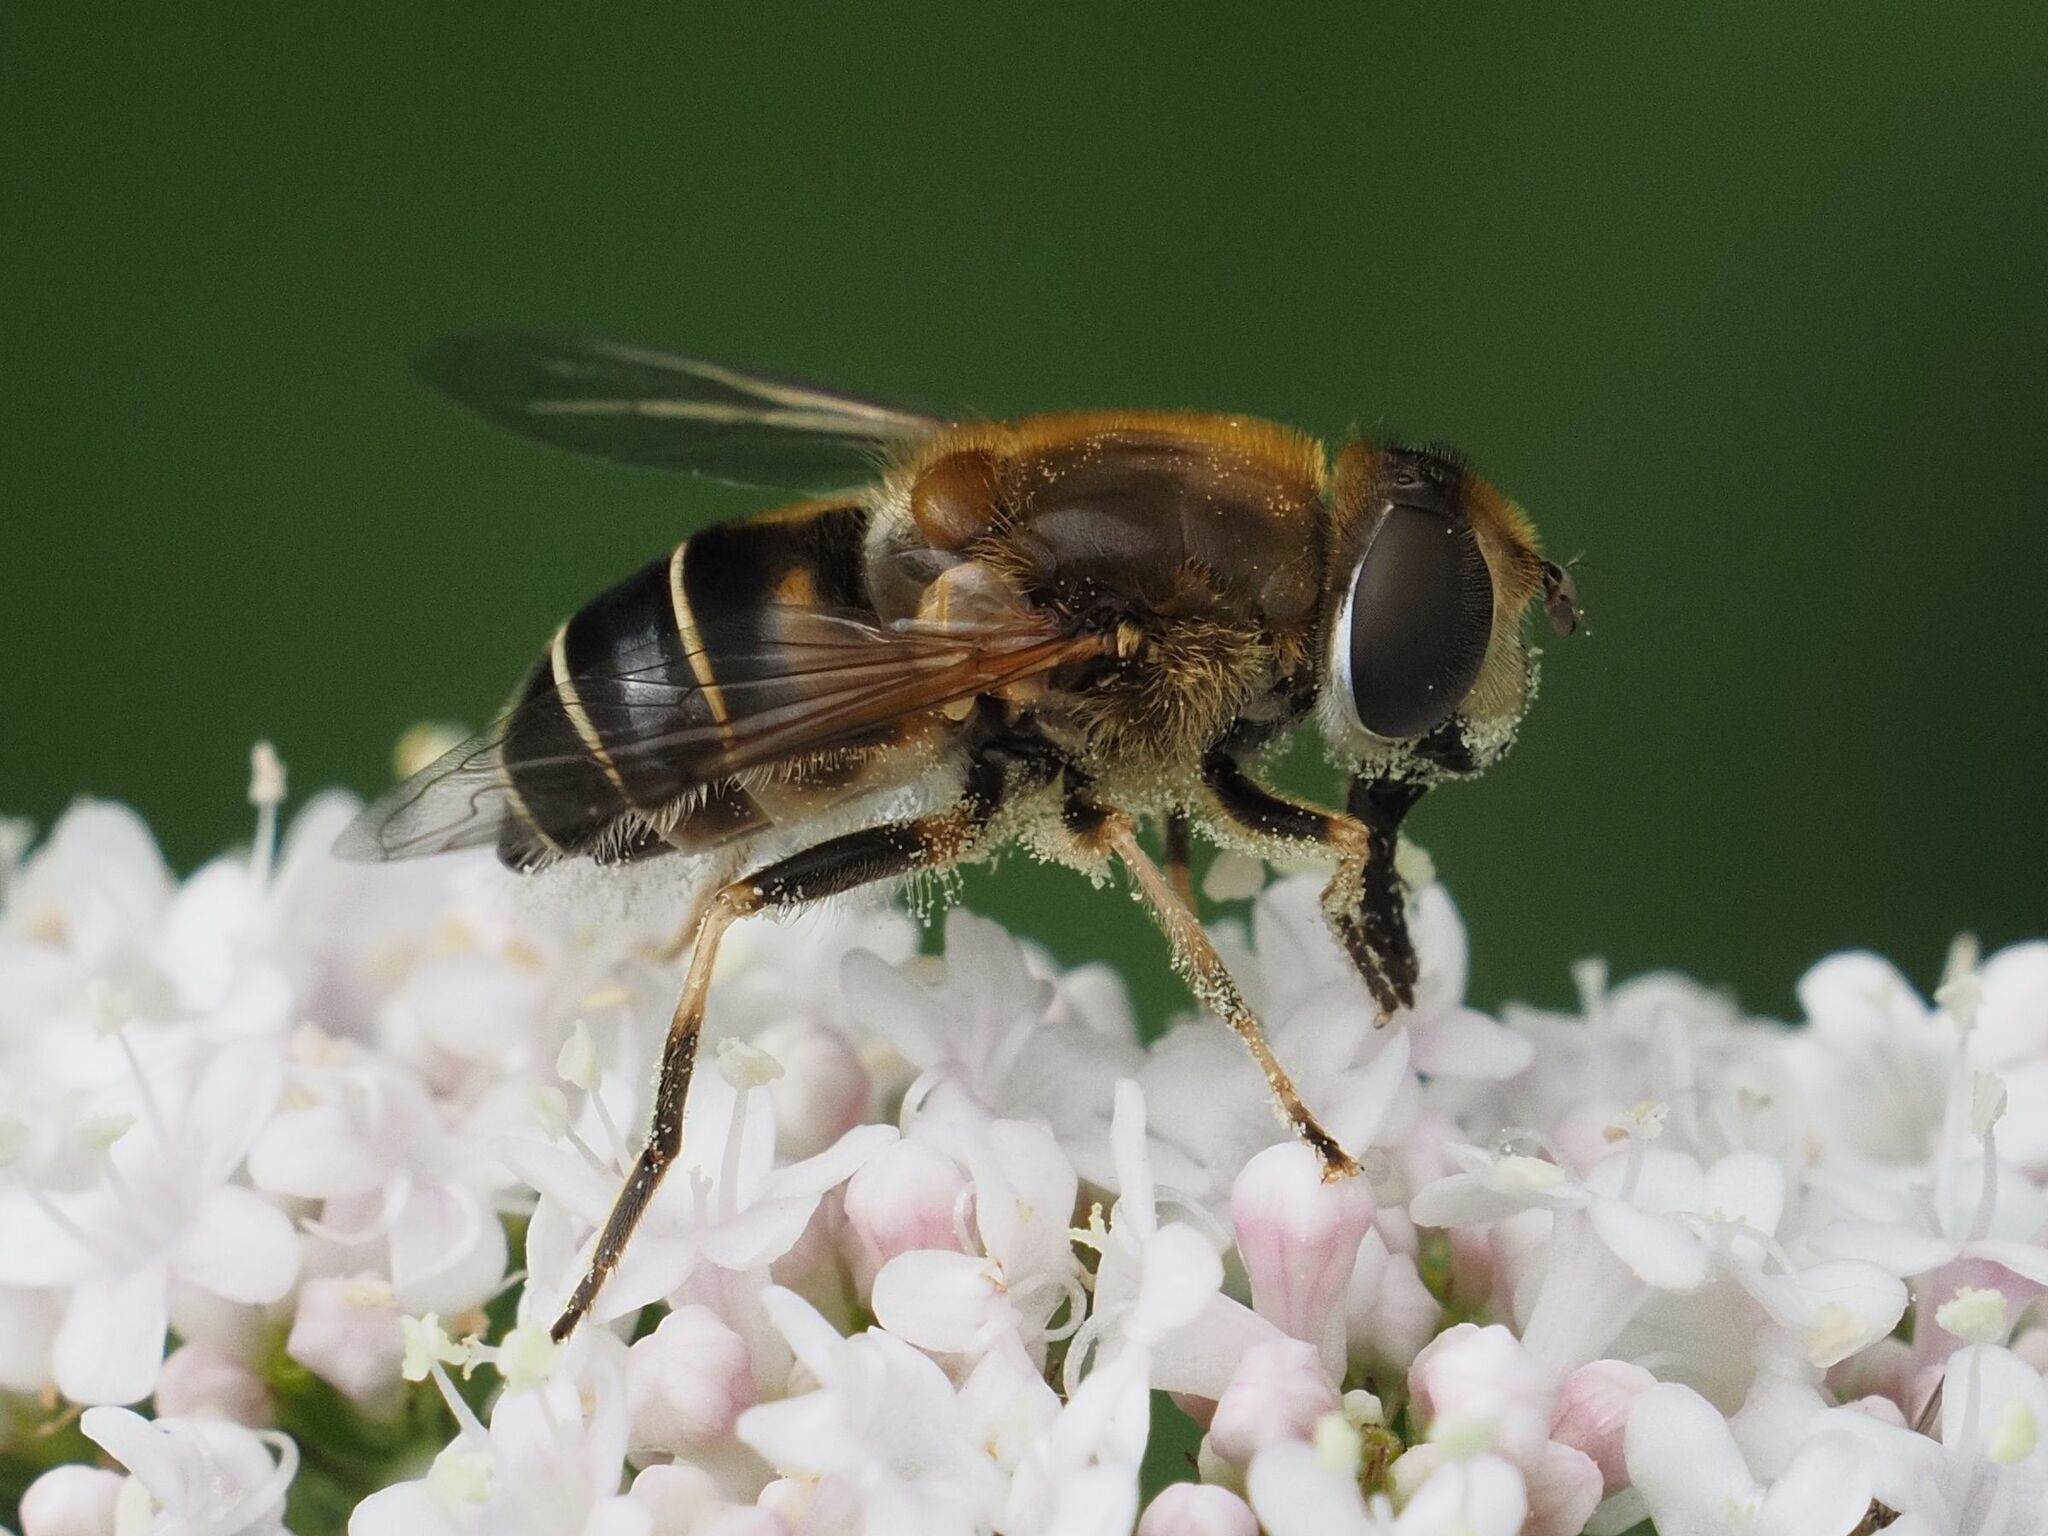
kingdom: Animalia
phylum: Arthropoda
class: Insecta
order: Diptera
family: Syrphidae
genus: Eristalis
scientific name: Eristalis nemorum
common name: Orange-spined drone fly
